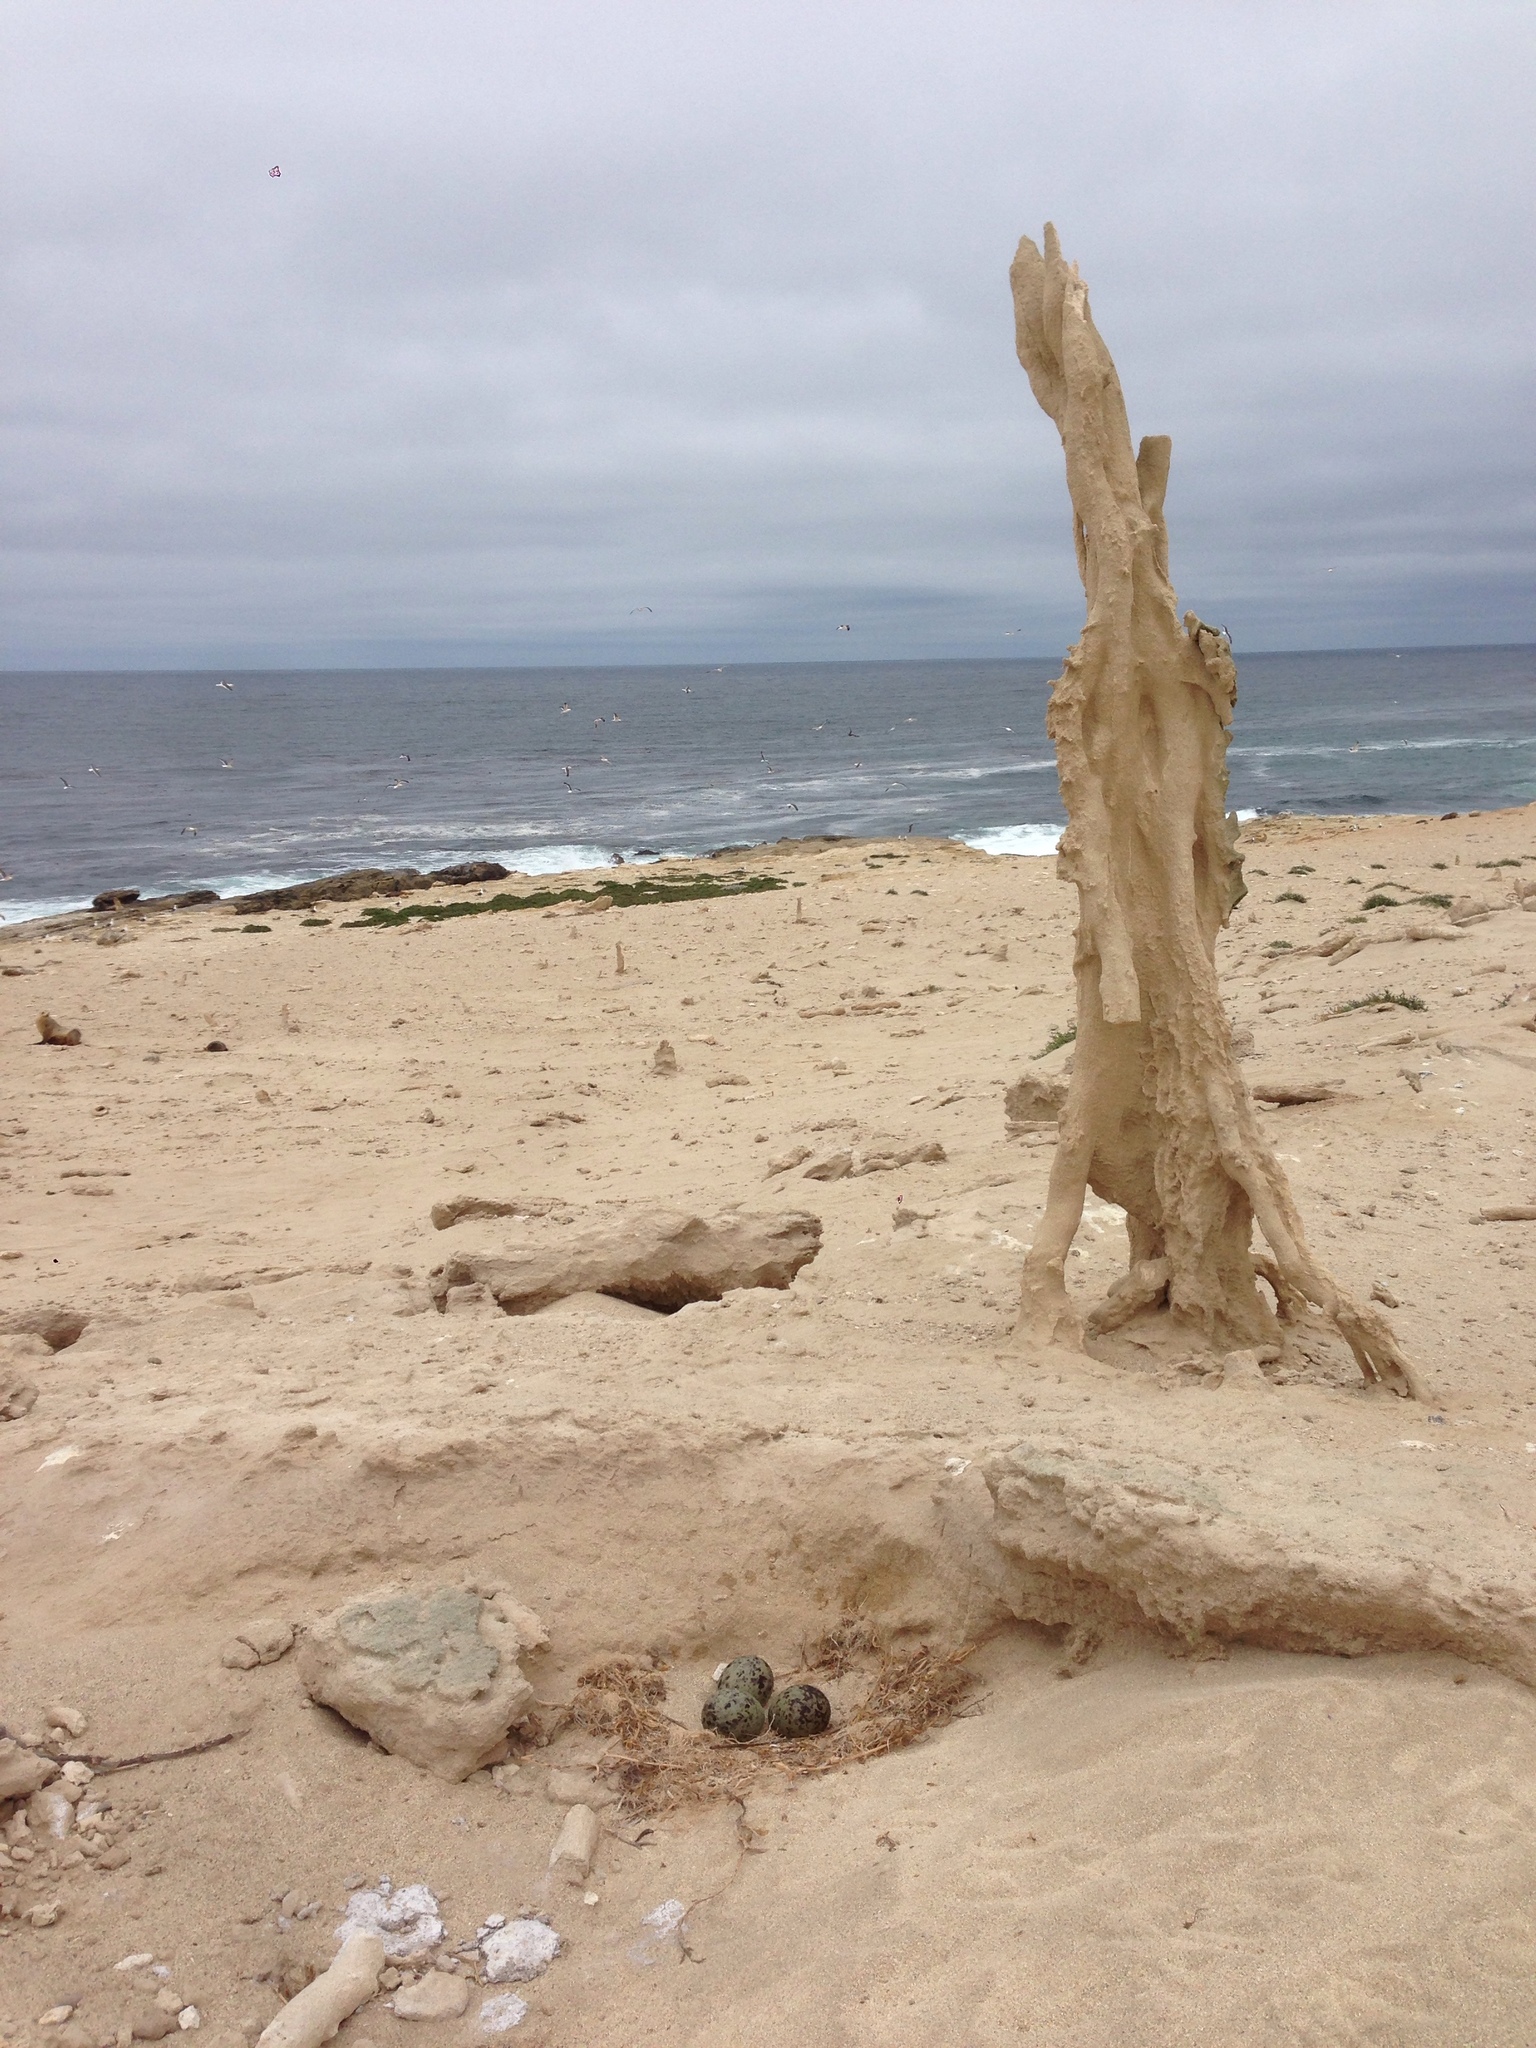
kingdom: Animalia
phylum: Chordata
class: Aves
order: Charadriiformes
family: Laridae
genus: Larus
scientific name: Larus occidentalis
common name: Western gull
